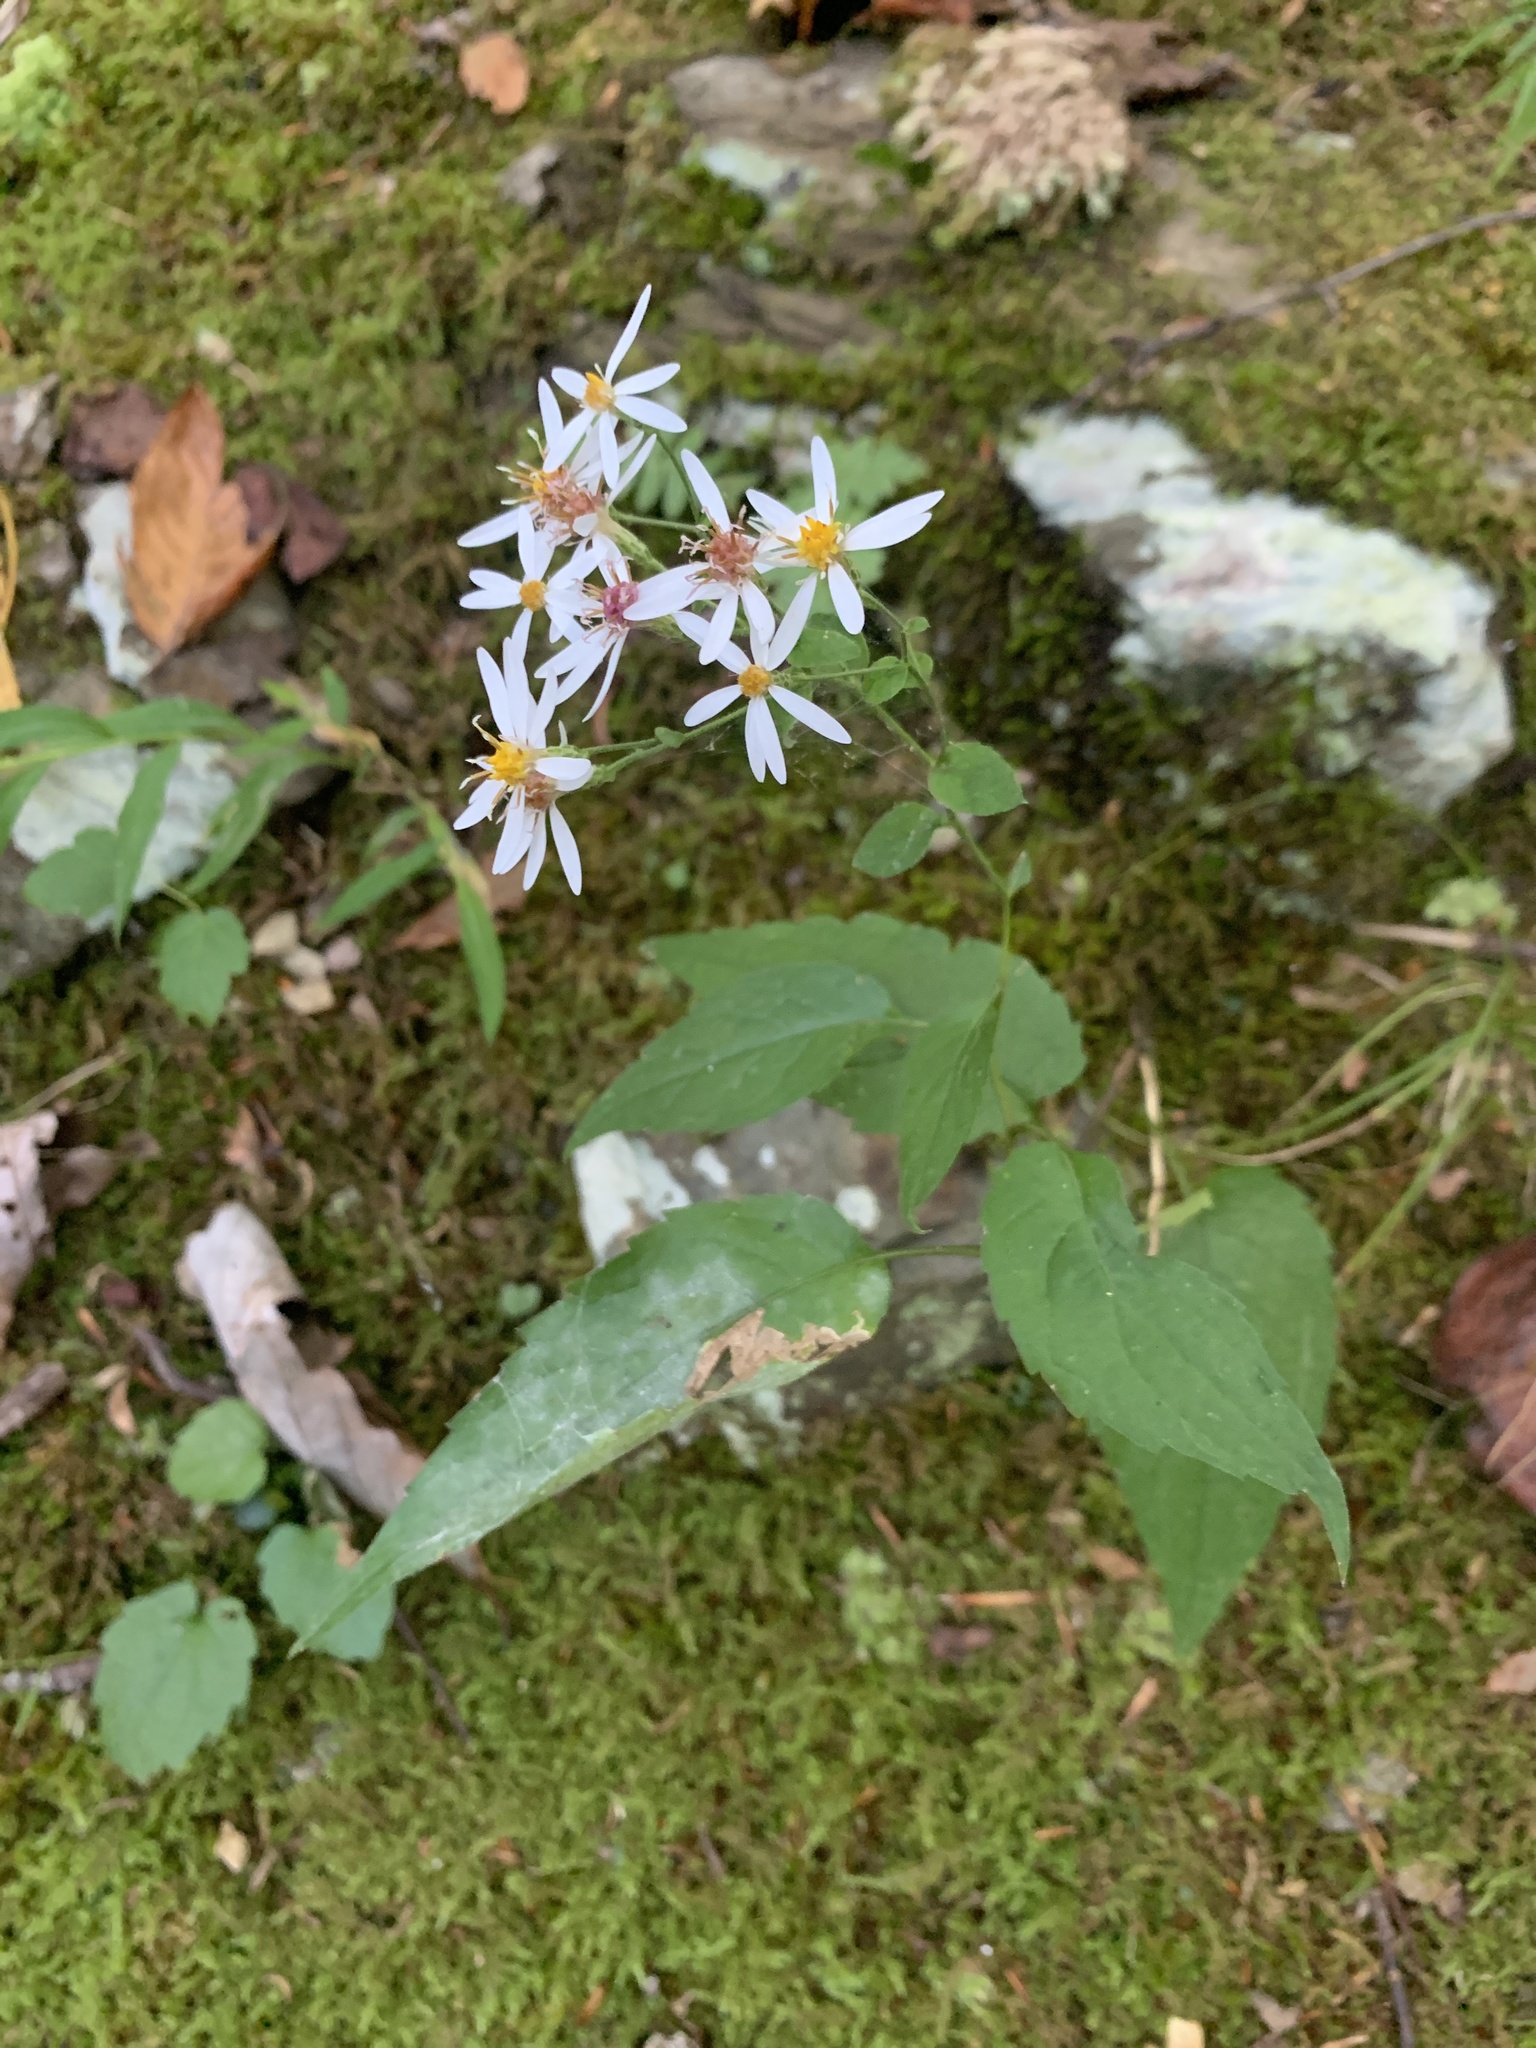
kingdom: Plantae
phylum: Tracheophyta
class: Magnoliopsida
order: Asterales
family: Asteraceae
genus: Eurybia
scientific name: Eurybia divaricata
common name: White wood aster
